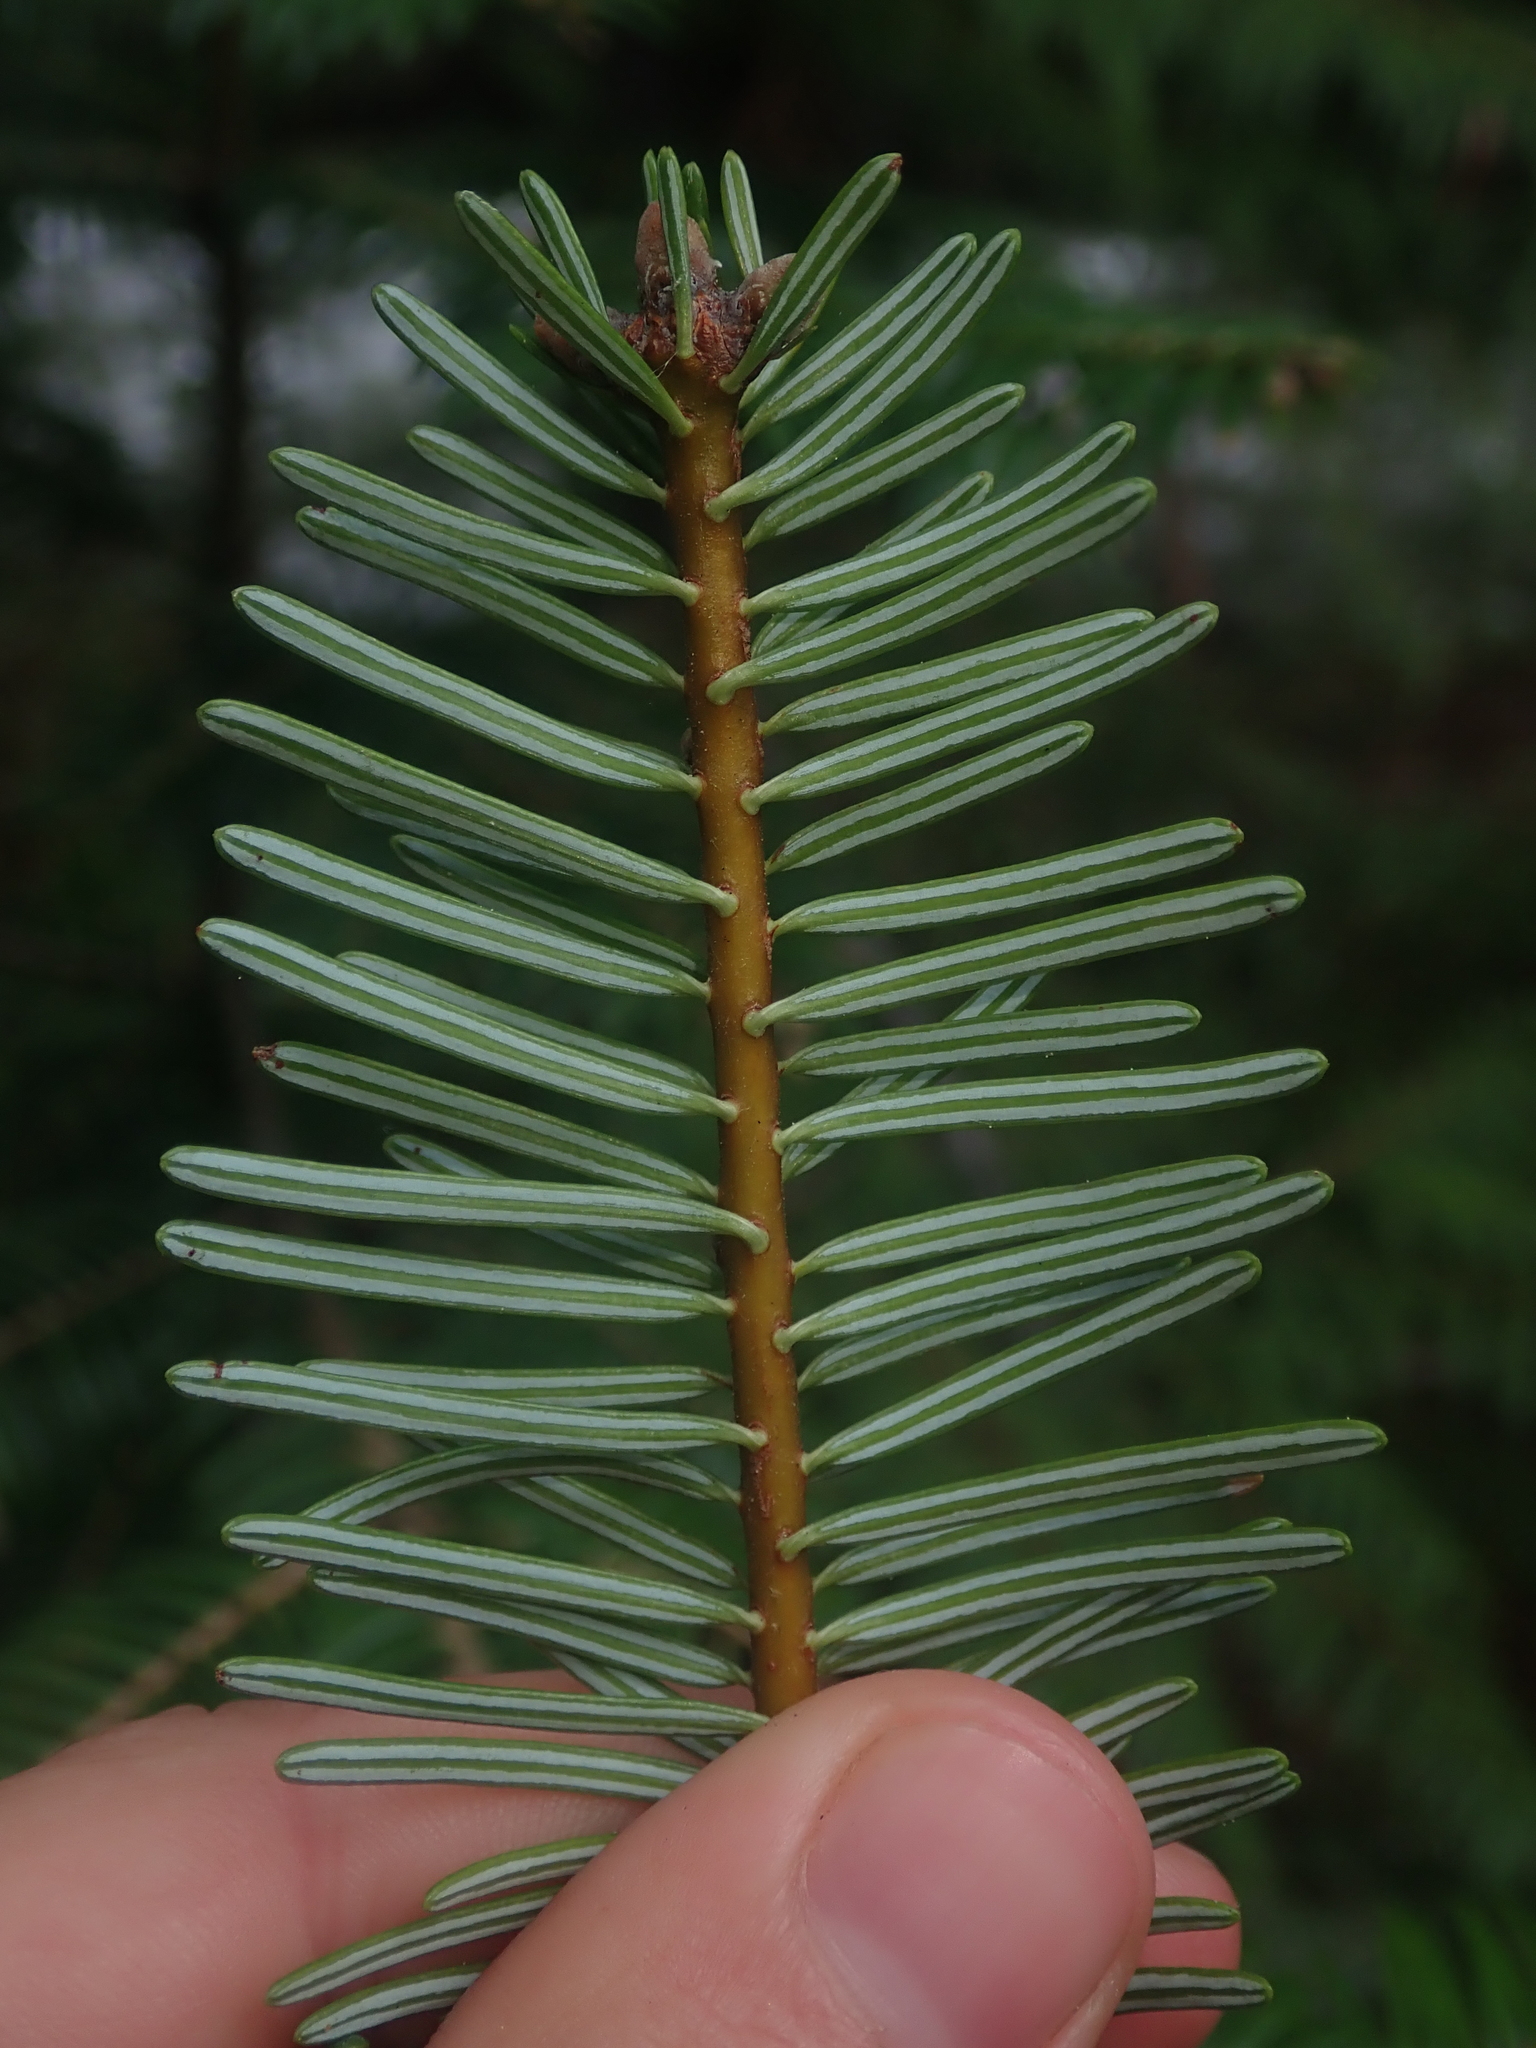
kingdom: Plantae
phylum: Tracheophyta
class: Pinopsida
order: Pinales
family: Pinaceae
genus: Abies
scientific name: Abies grandis
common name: Giant fir
